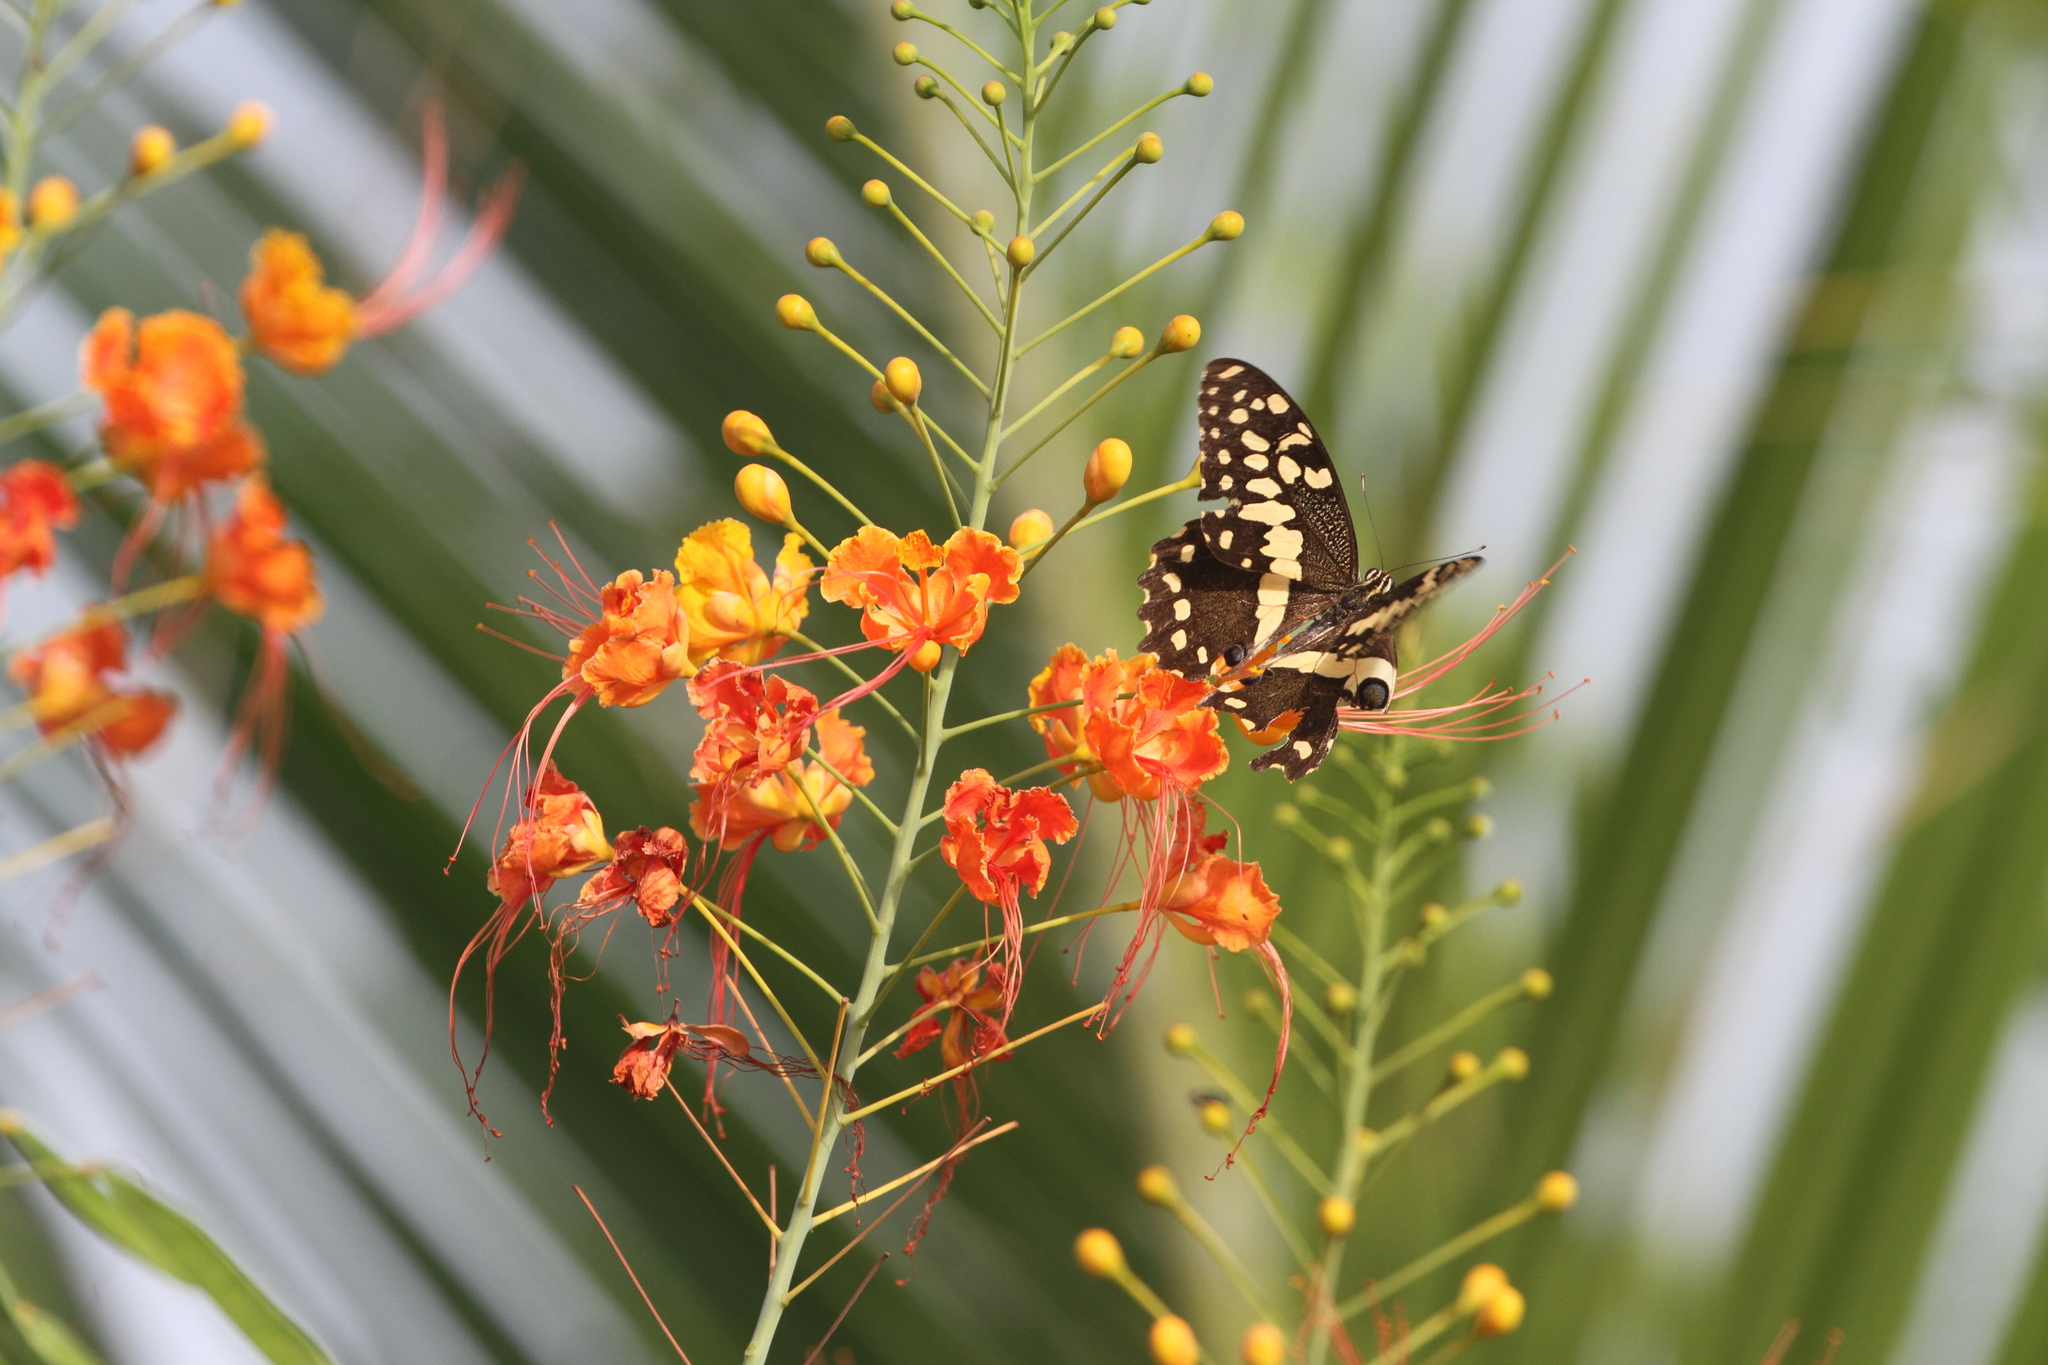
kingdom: Animalia
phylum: Arthropoda
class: Insecta
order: Lepidoptera
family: Papilionidae
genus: Papilio
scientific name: Papilio demodocus
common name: Christmas butterfly
